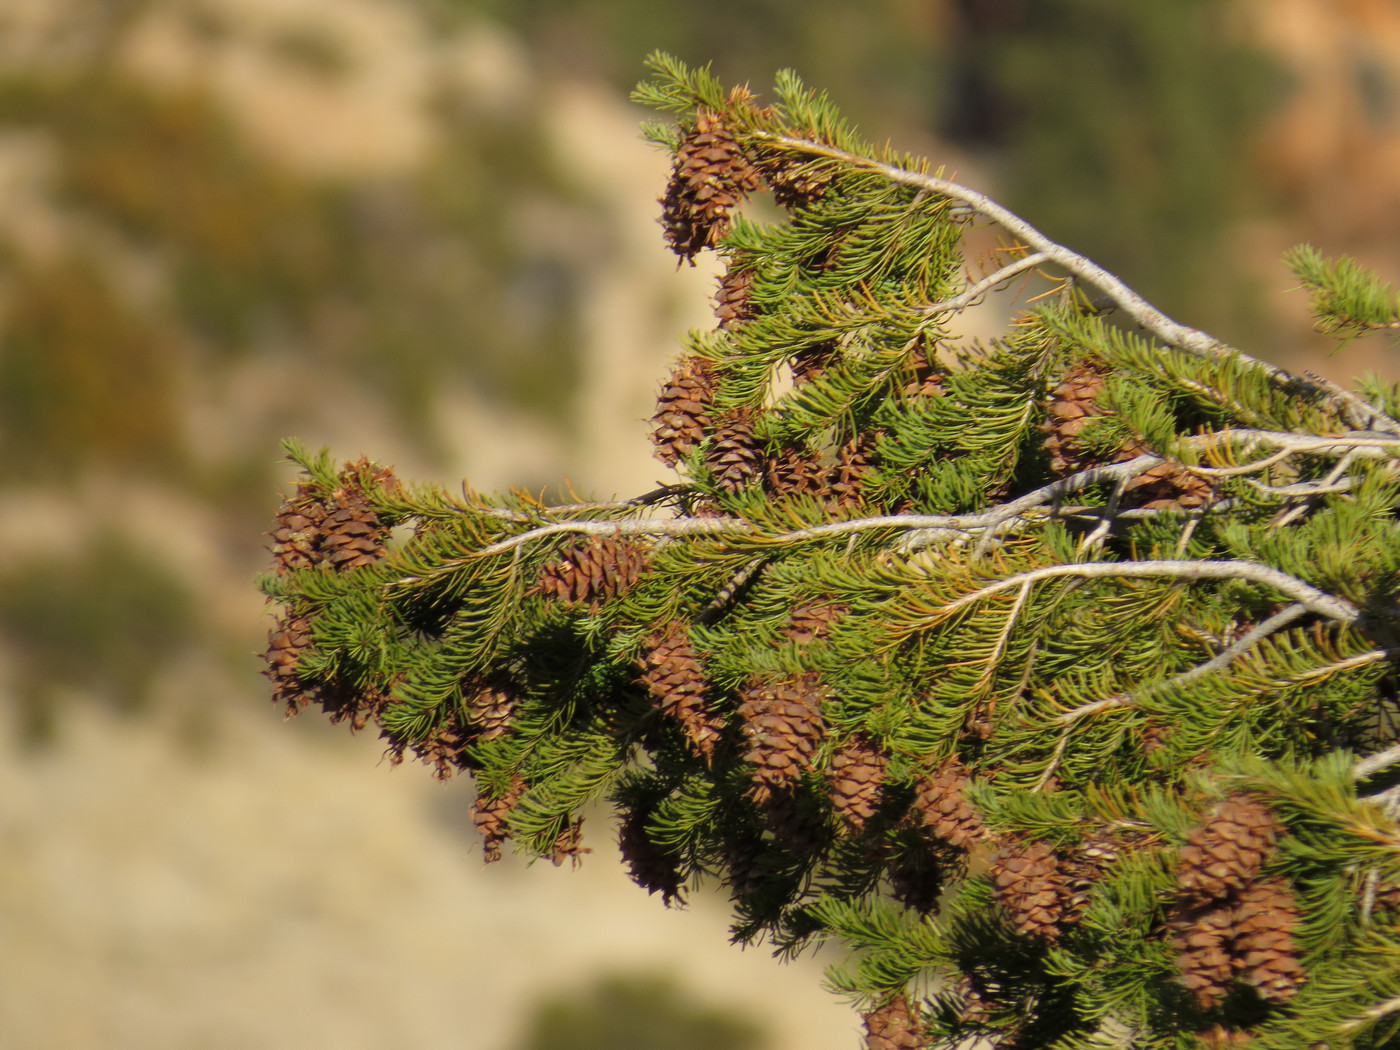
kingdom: Plantae
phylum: Tracheophyta
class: Pinopsida
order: Pinales
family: Pinaceae
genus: Pseudotsuga
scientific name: Pseudotsuga menziesii
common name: Douglas fir
